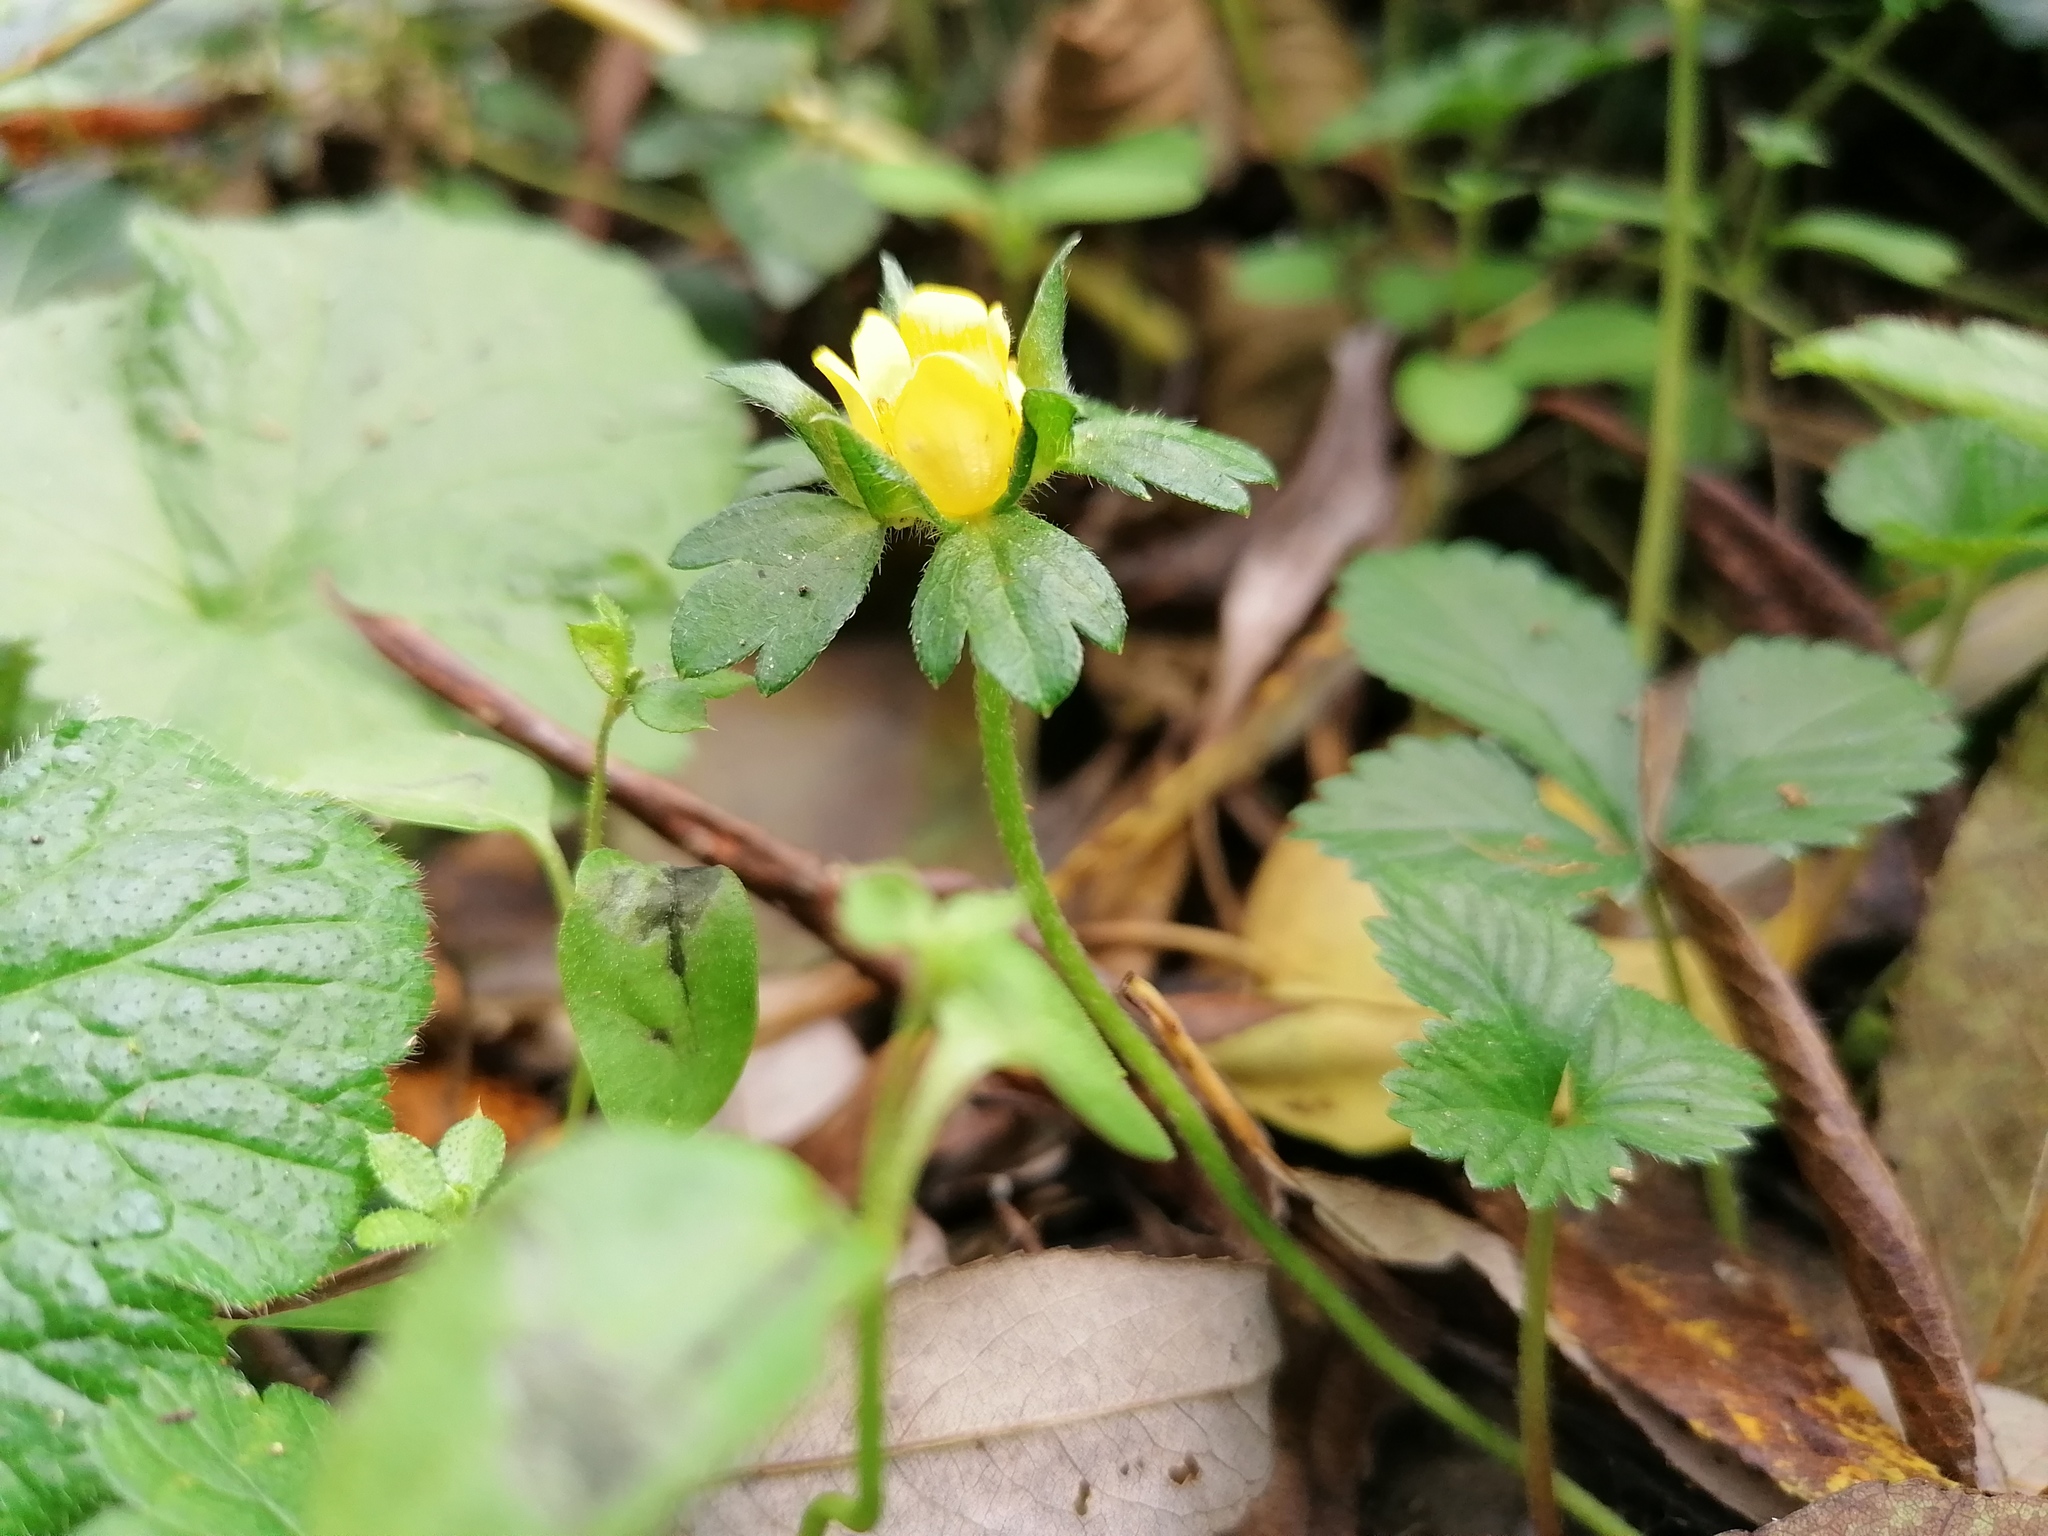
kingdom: Plantae
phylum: Tracheophyta
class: Magnoliopsida
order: Rosales
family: Rosaceae
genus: Potentilla
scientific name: Potentilla indica
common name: Yellow-flowered strawberry
